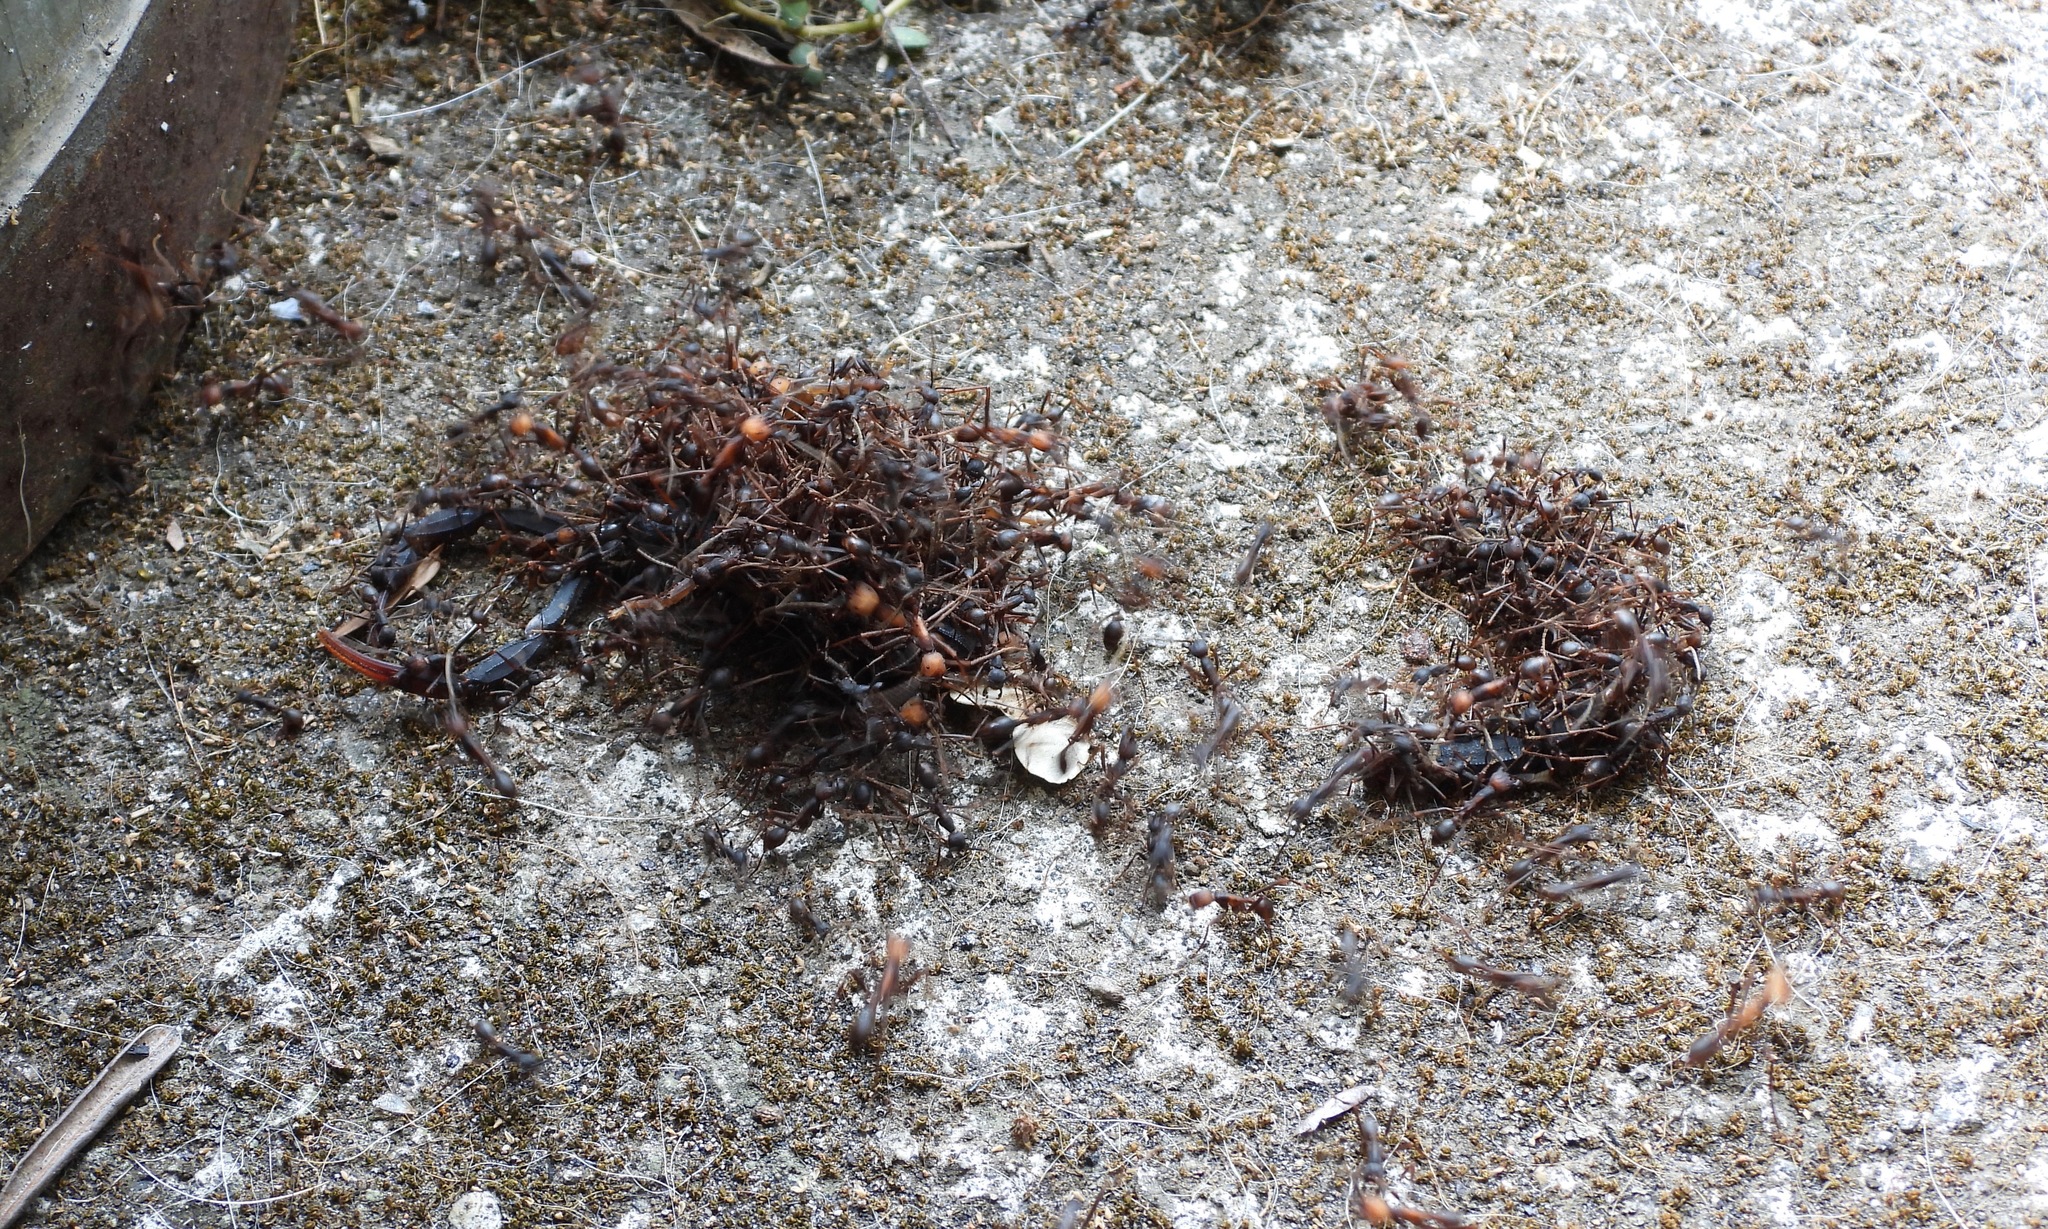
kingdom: Animalia
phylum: Arthropoda
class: Insecta
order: Hymenoptera
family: Formicidae
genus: Eciton
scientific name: Eciton burchellii
